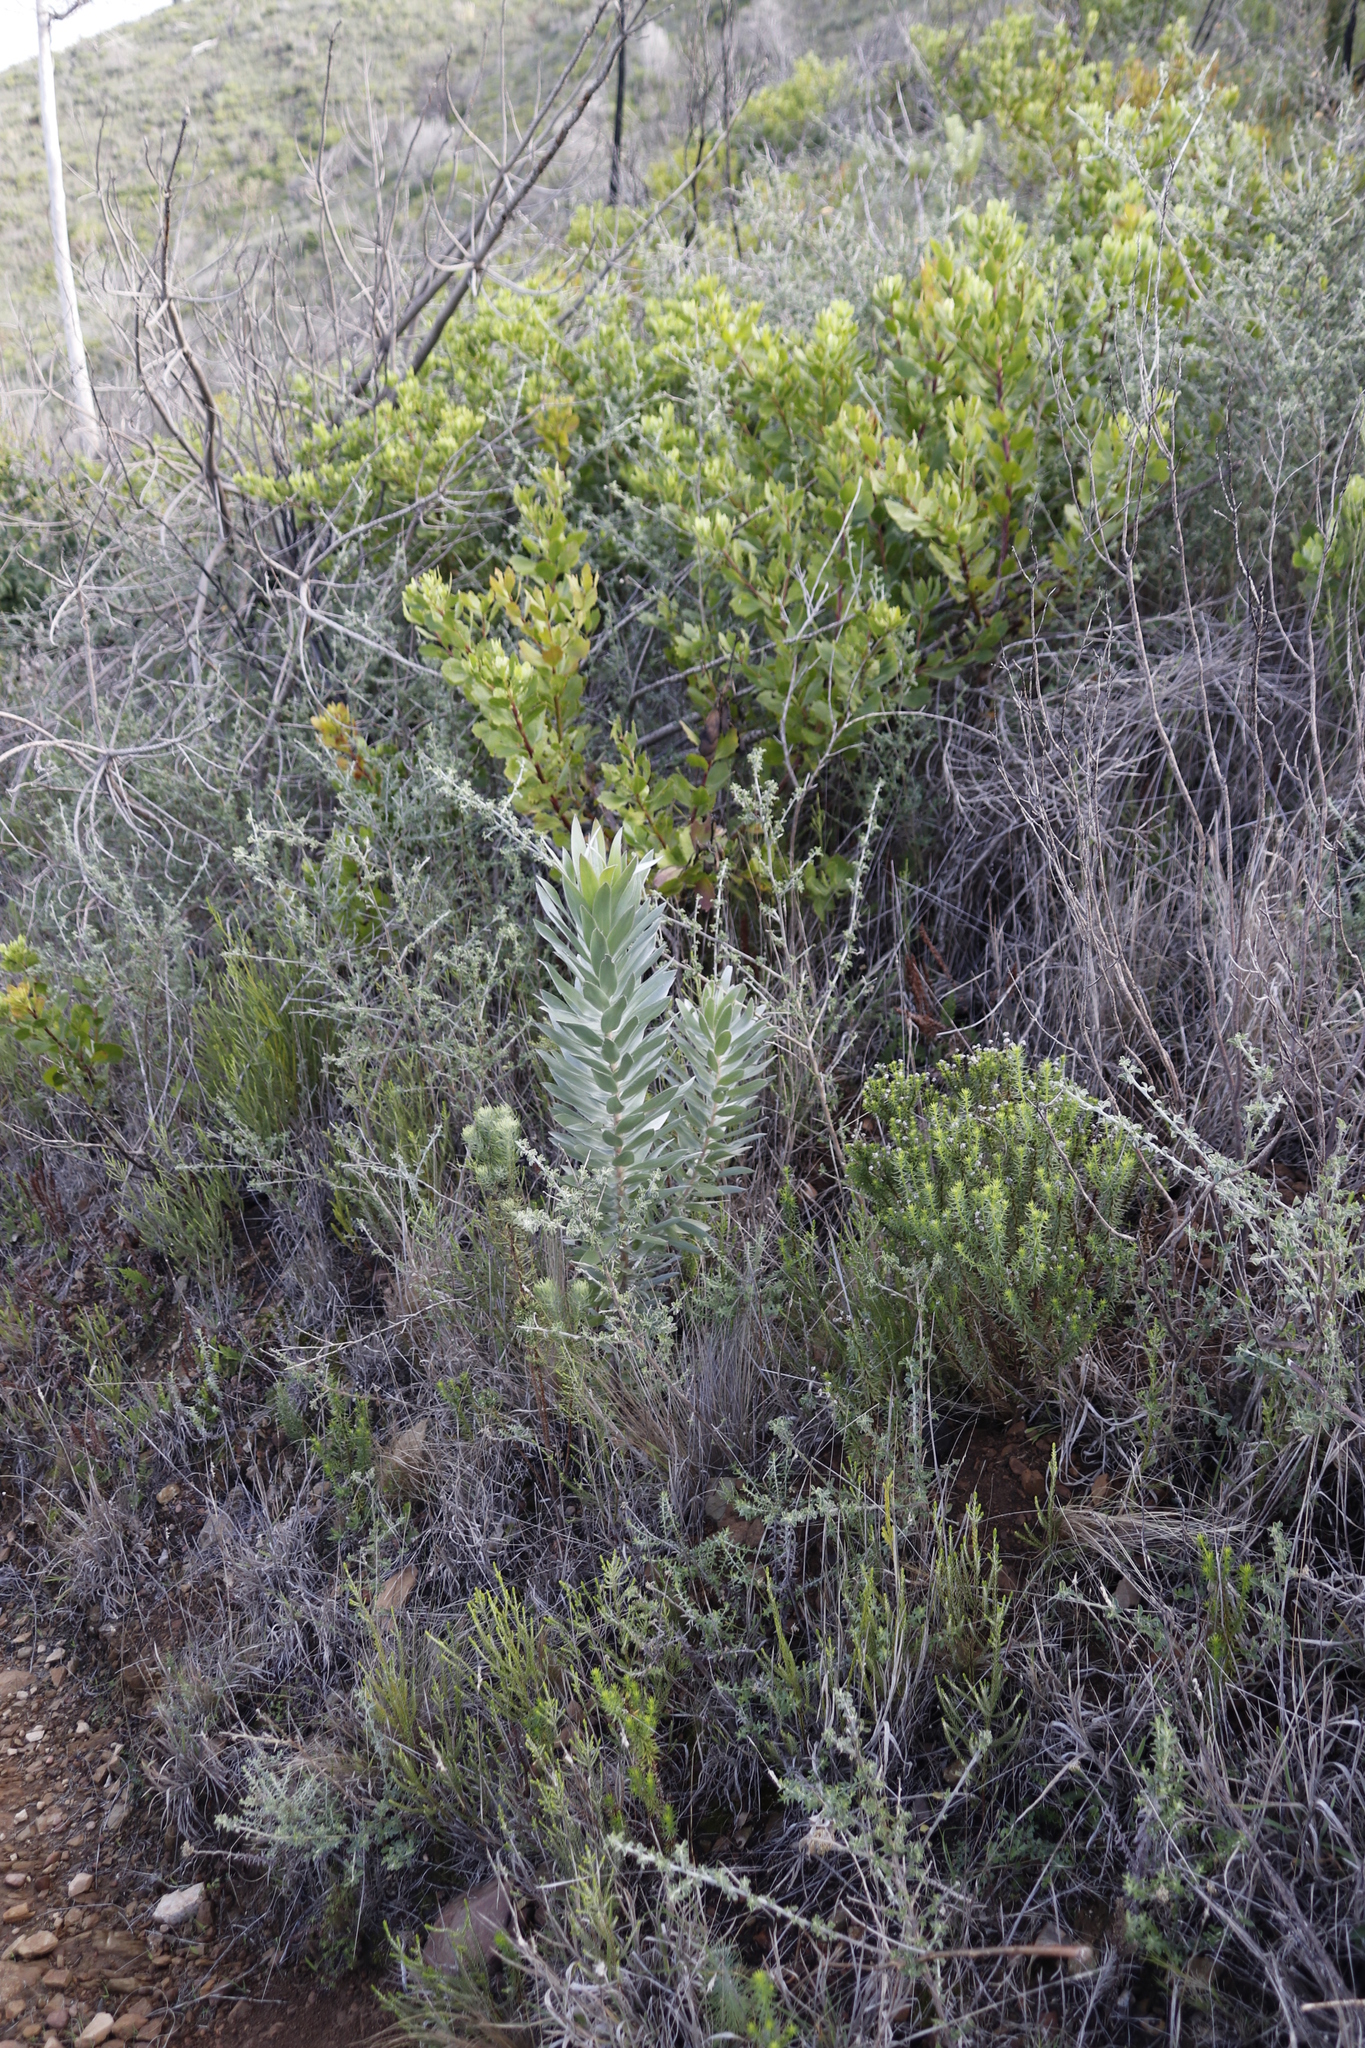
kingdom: Plantae
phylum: Tracheophyta
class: Magnoliopsida
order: Proteales
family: Proteaceae
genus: Leucadendron
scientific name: Leucadendron argenteum
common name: Cape silver tree
